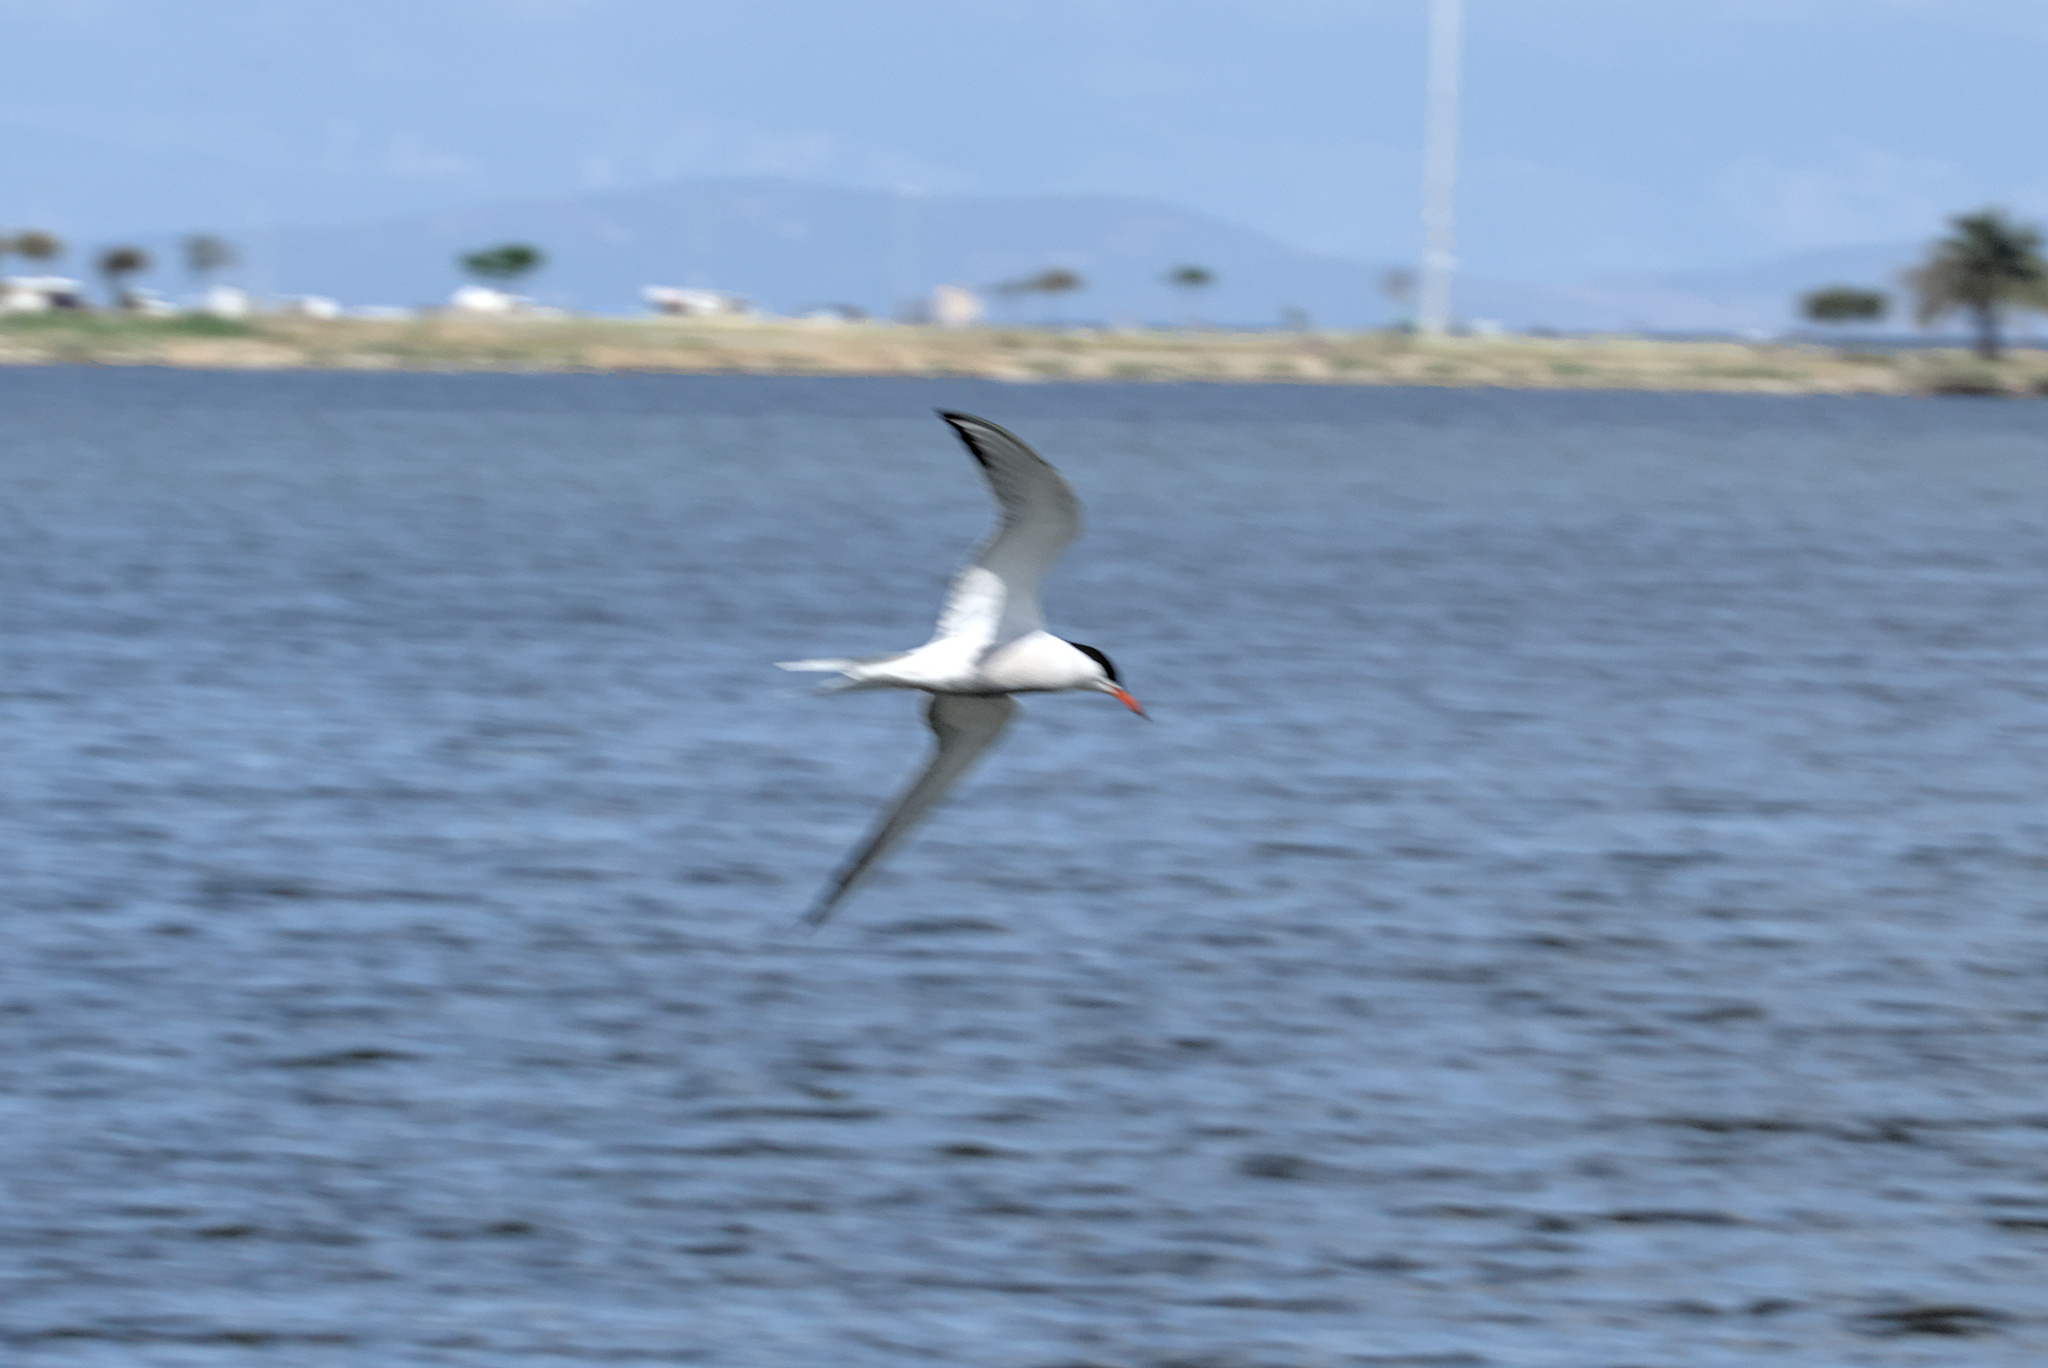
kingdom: Animalia
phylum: Chordata
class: Aves
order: Charadriiformes
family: Laridae
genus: Sterna
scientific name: Sterna hirundo
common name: Common tern
